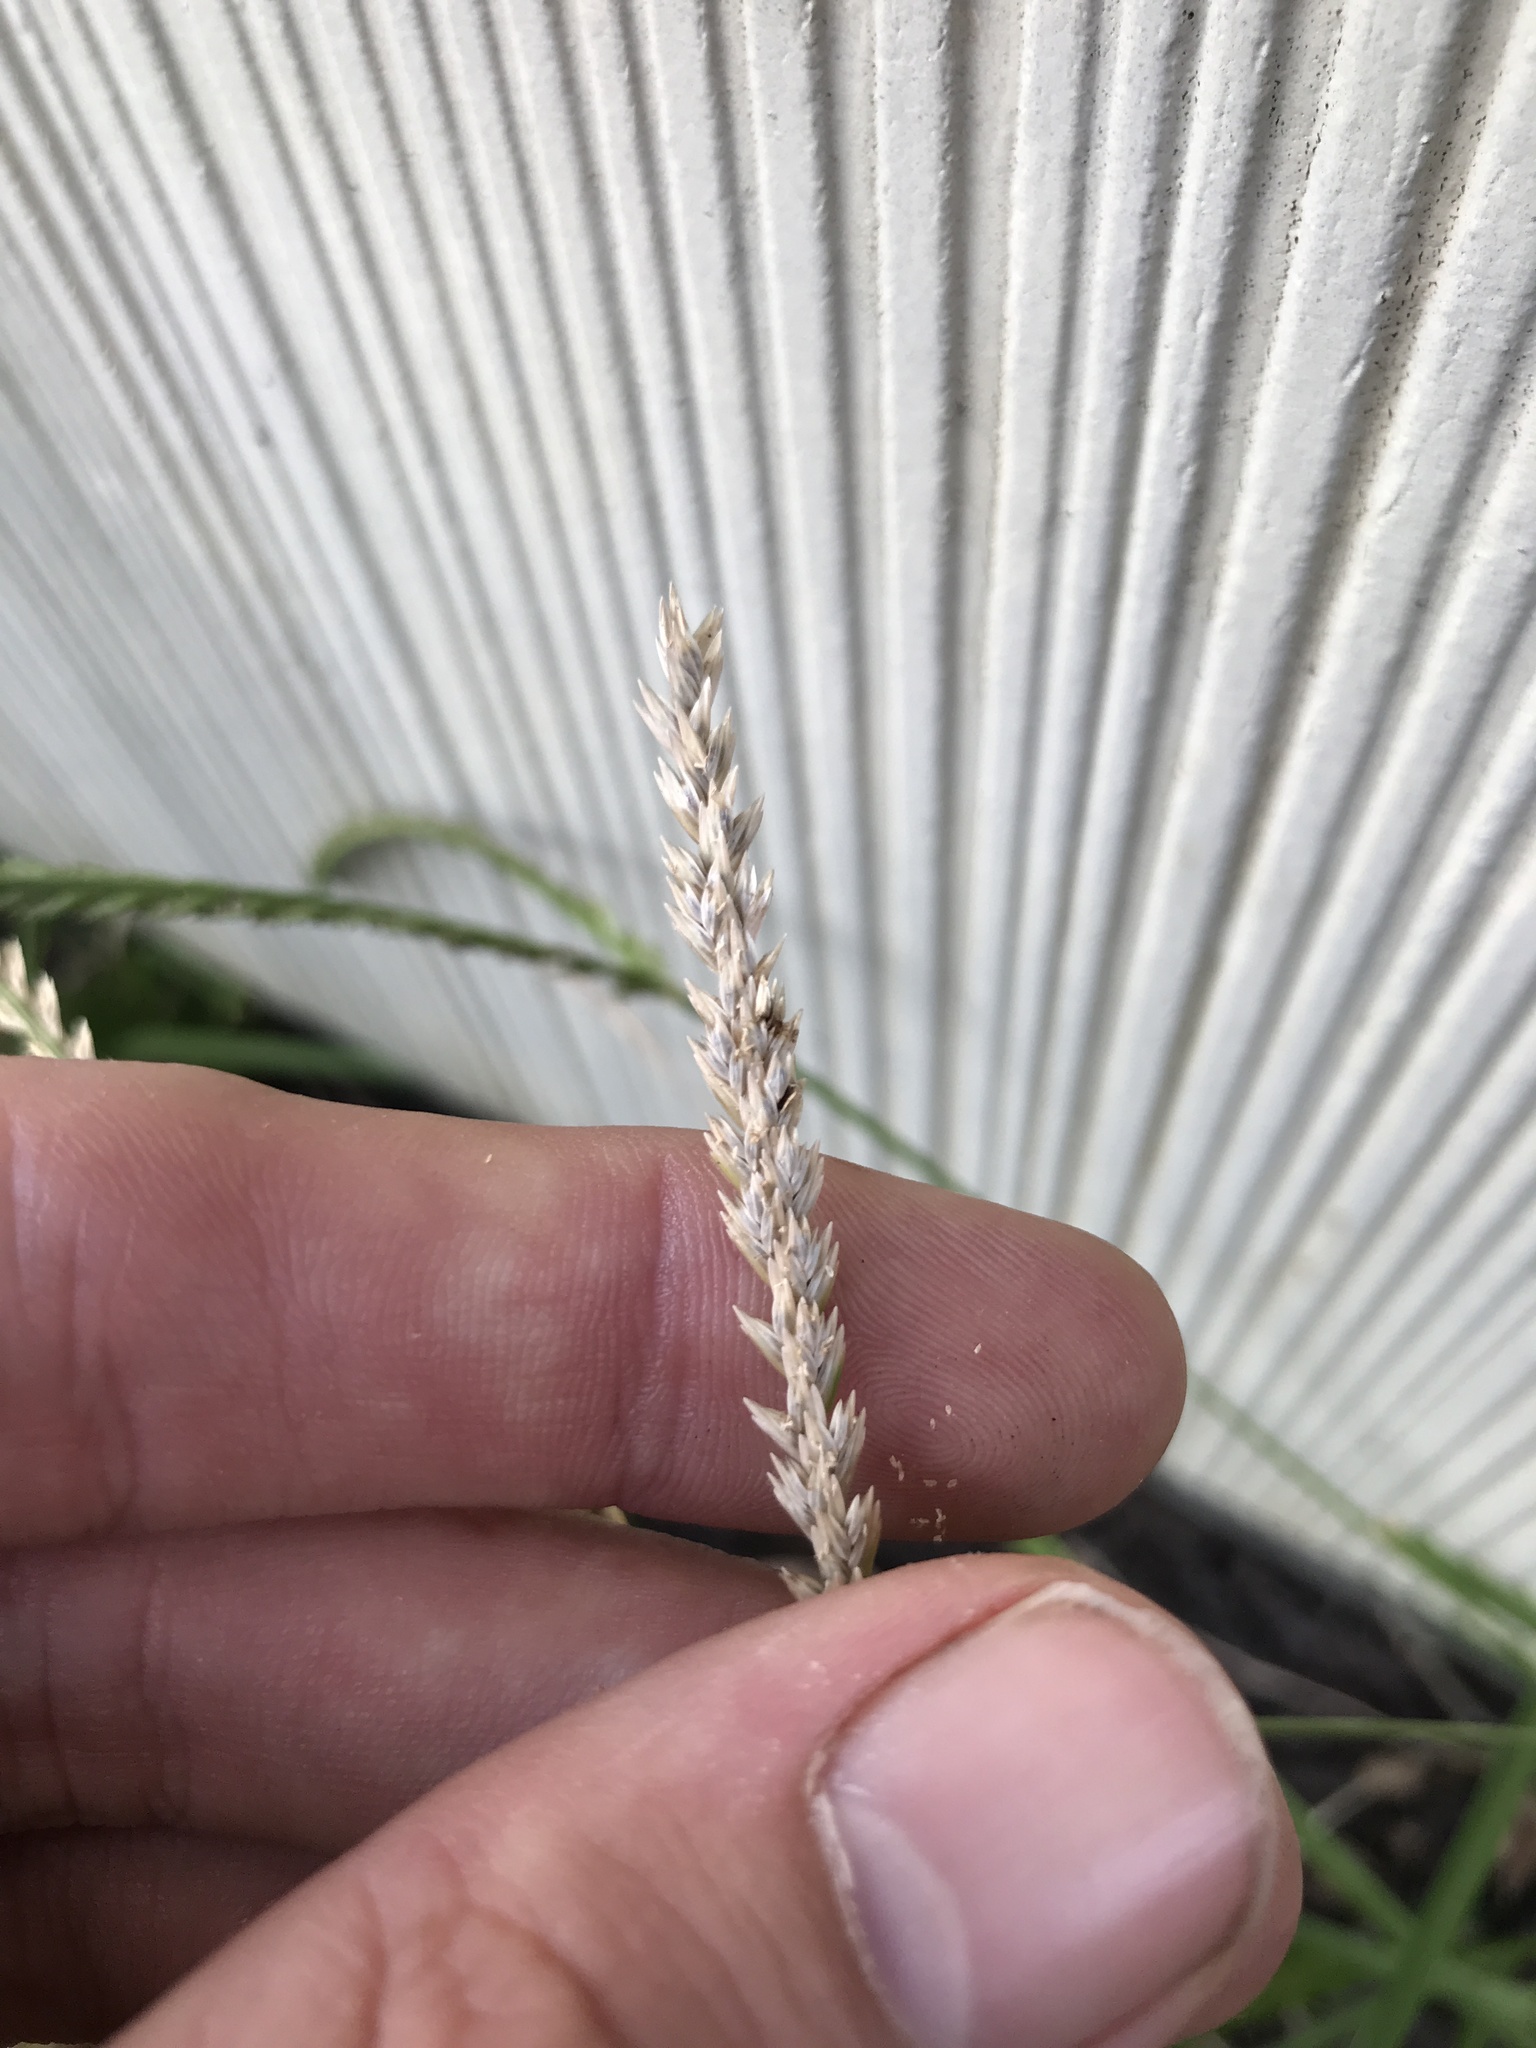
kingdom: Plantae
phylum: Tracheophyta
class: Liliopsida
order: Poales
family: Poaceae
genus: Eleusine
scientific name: Eleusine indica
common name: Yard-grass
